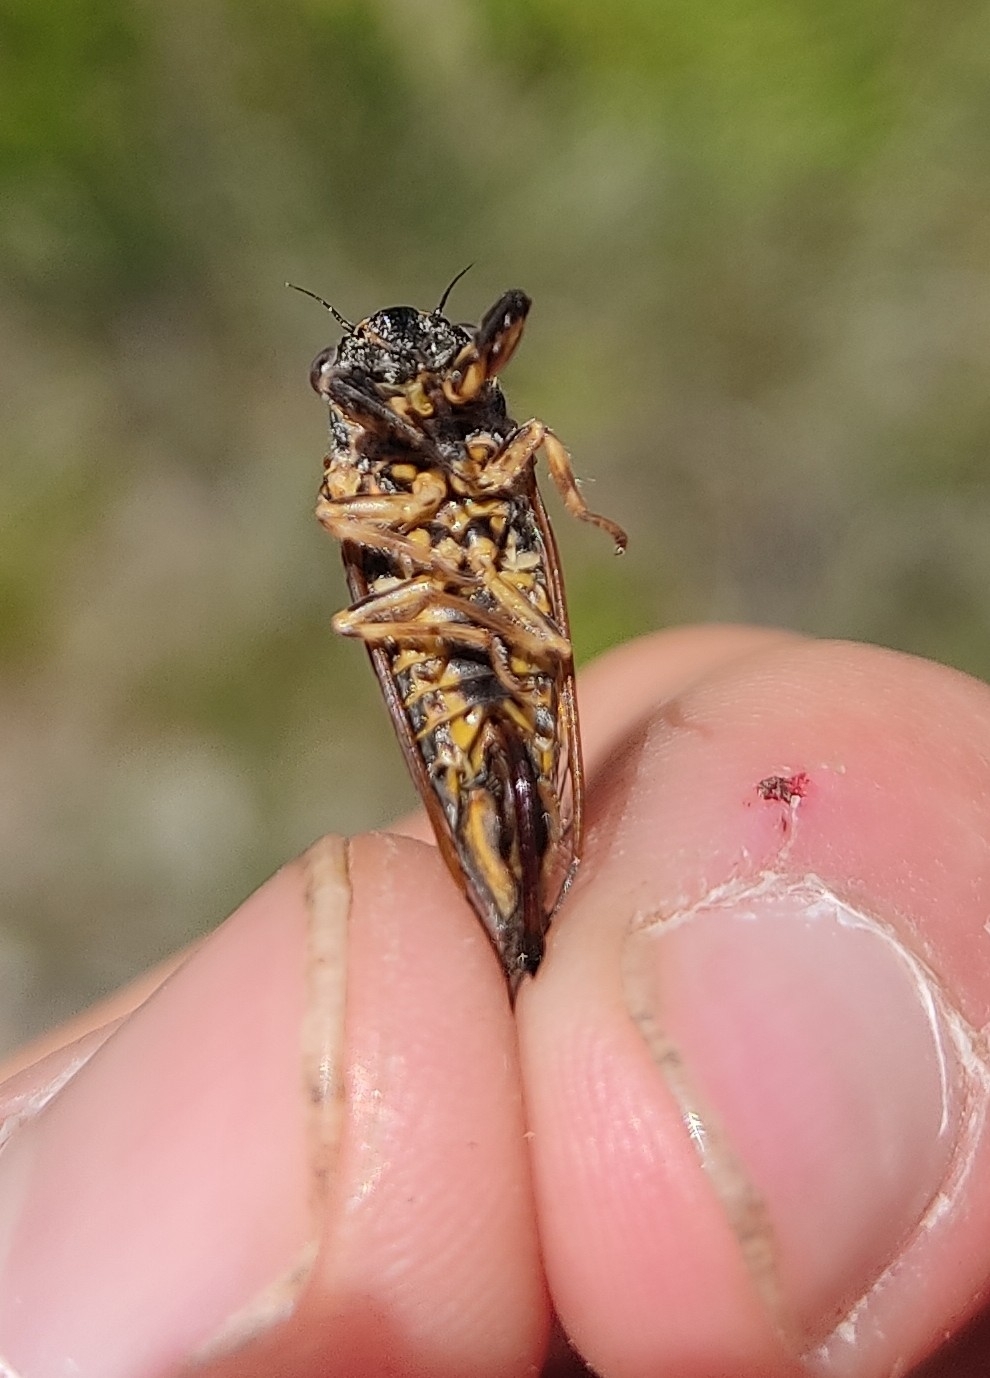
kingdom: Animalia
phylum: Arthropoda
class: Insecta
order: Hemiptera
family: Cicadidae
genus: Tettigettula
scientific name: Tettigettula pygmea
